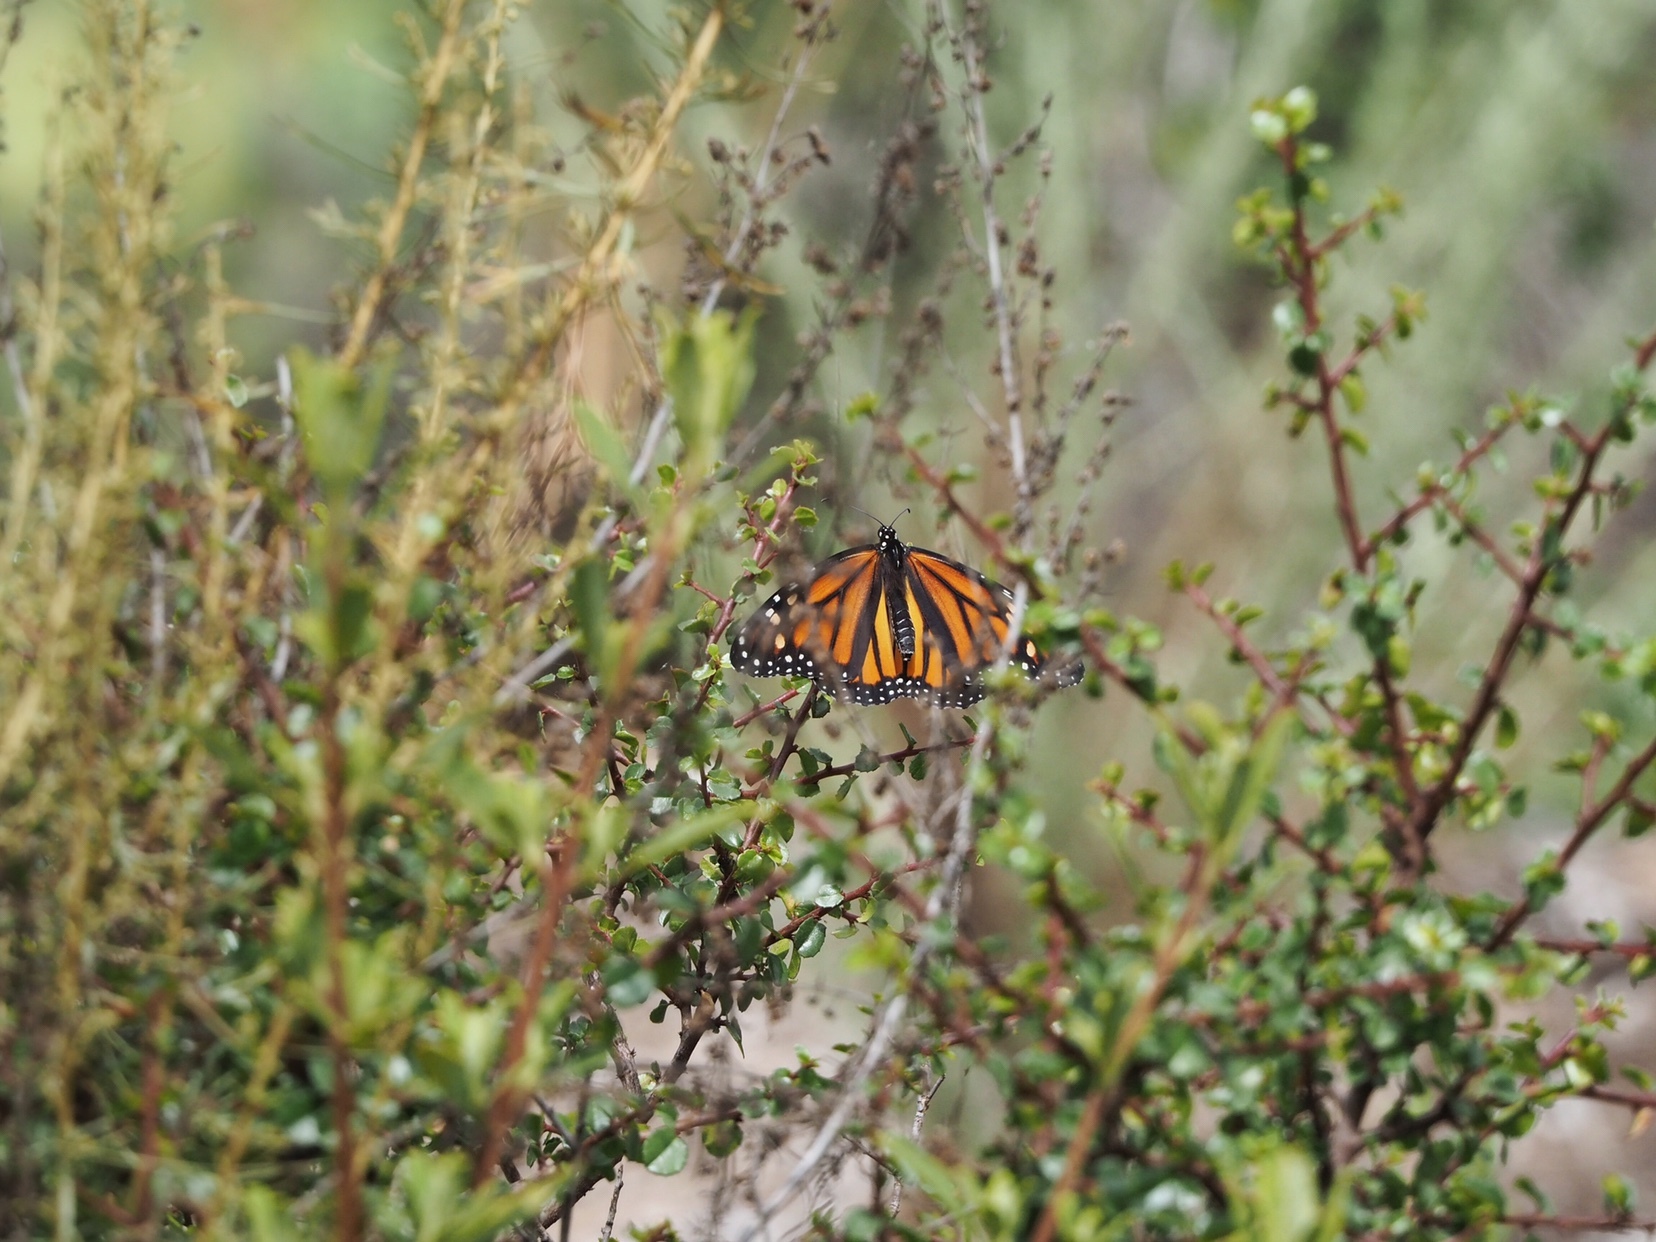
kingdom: Animalia
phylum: Arthropoda
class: Insecta
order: Lepidoptera
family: Nymphalidae
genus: Danaus
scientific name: Danaus plexippus
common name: Monarch
